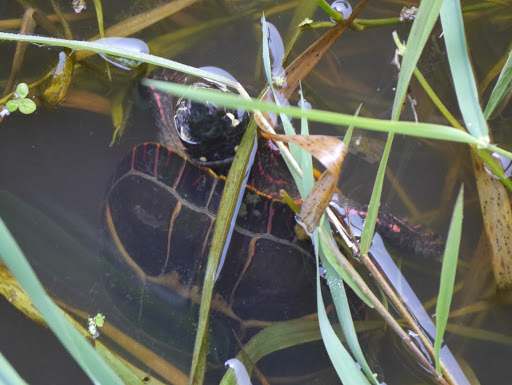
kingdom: Animalia
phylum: Chordata
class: Testudines
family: Emydidae
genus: Chrysemys
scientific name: Chrysemys picta
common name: Painted turtle
